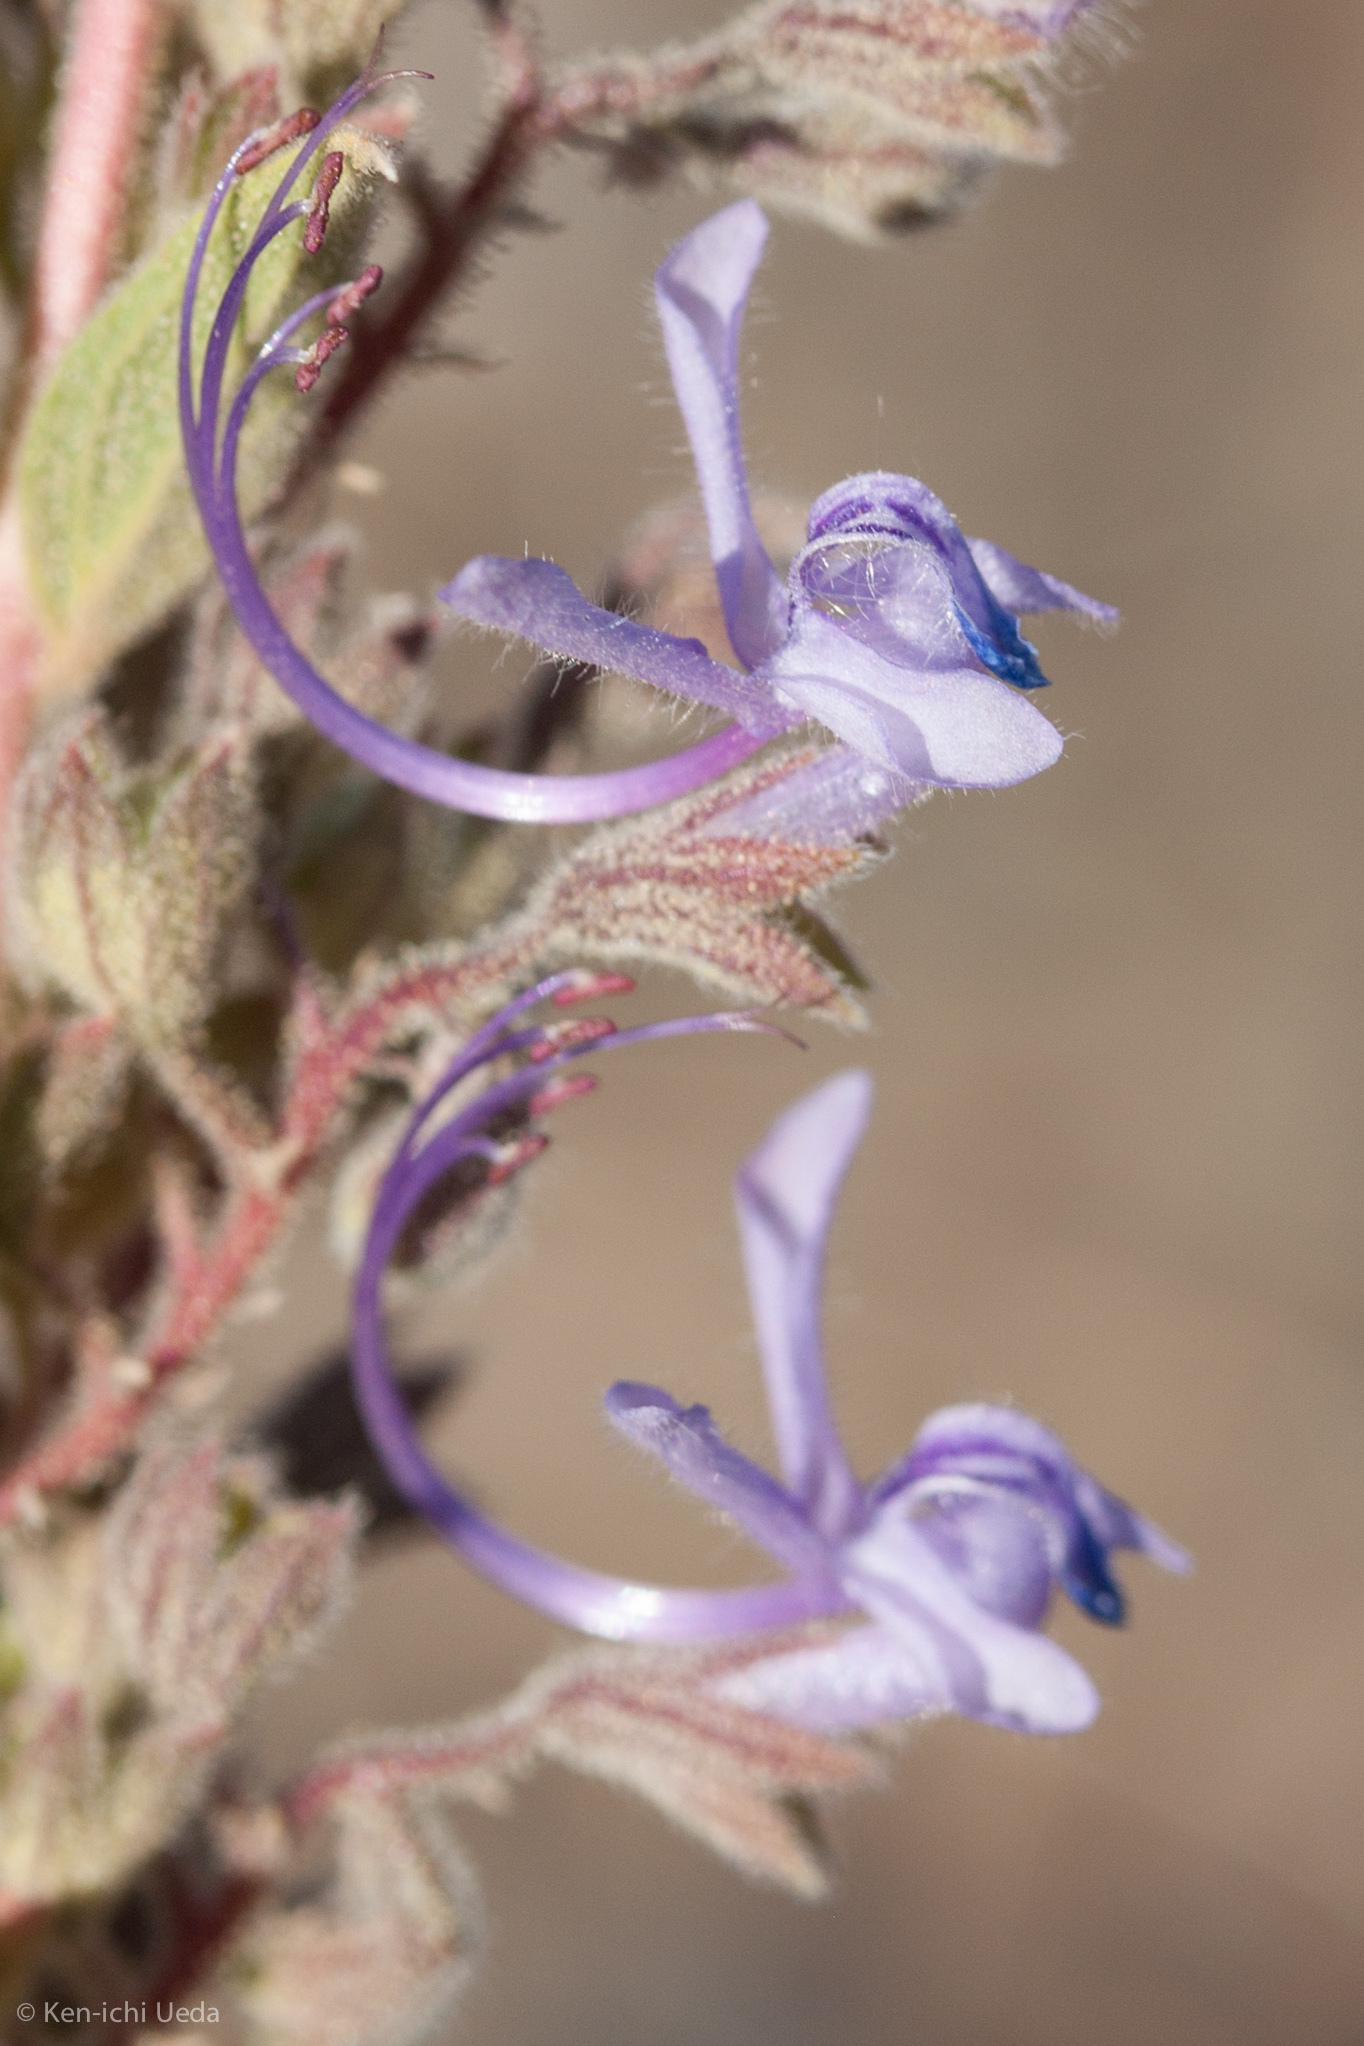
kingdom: Plantae
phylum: Tracheophyta
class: Magnoliopsida
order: Lamiales
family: Lamiaceae
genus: Trichostema
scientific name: Trichostema lanceolatum
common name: Vinegar-weed
